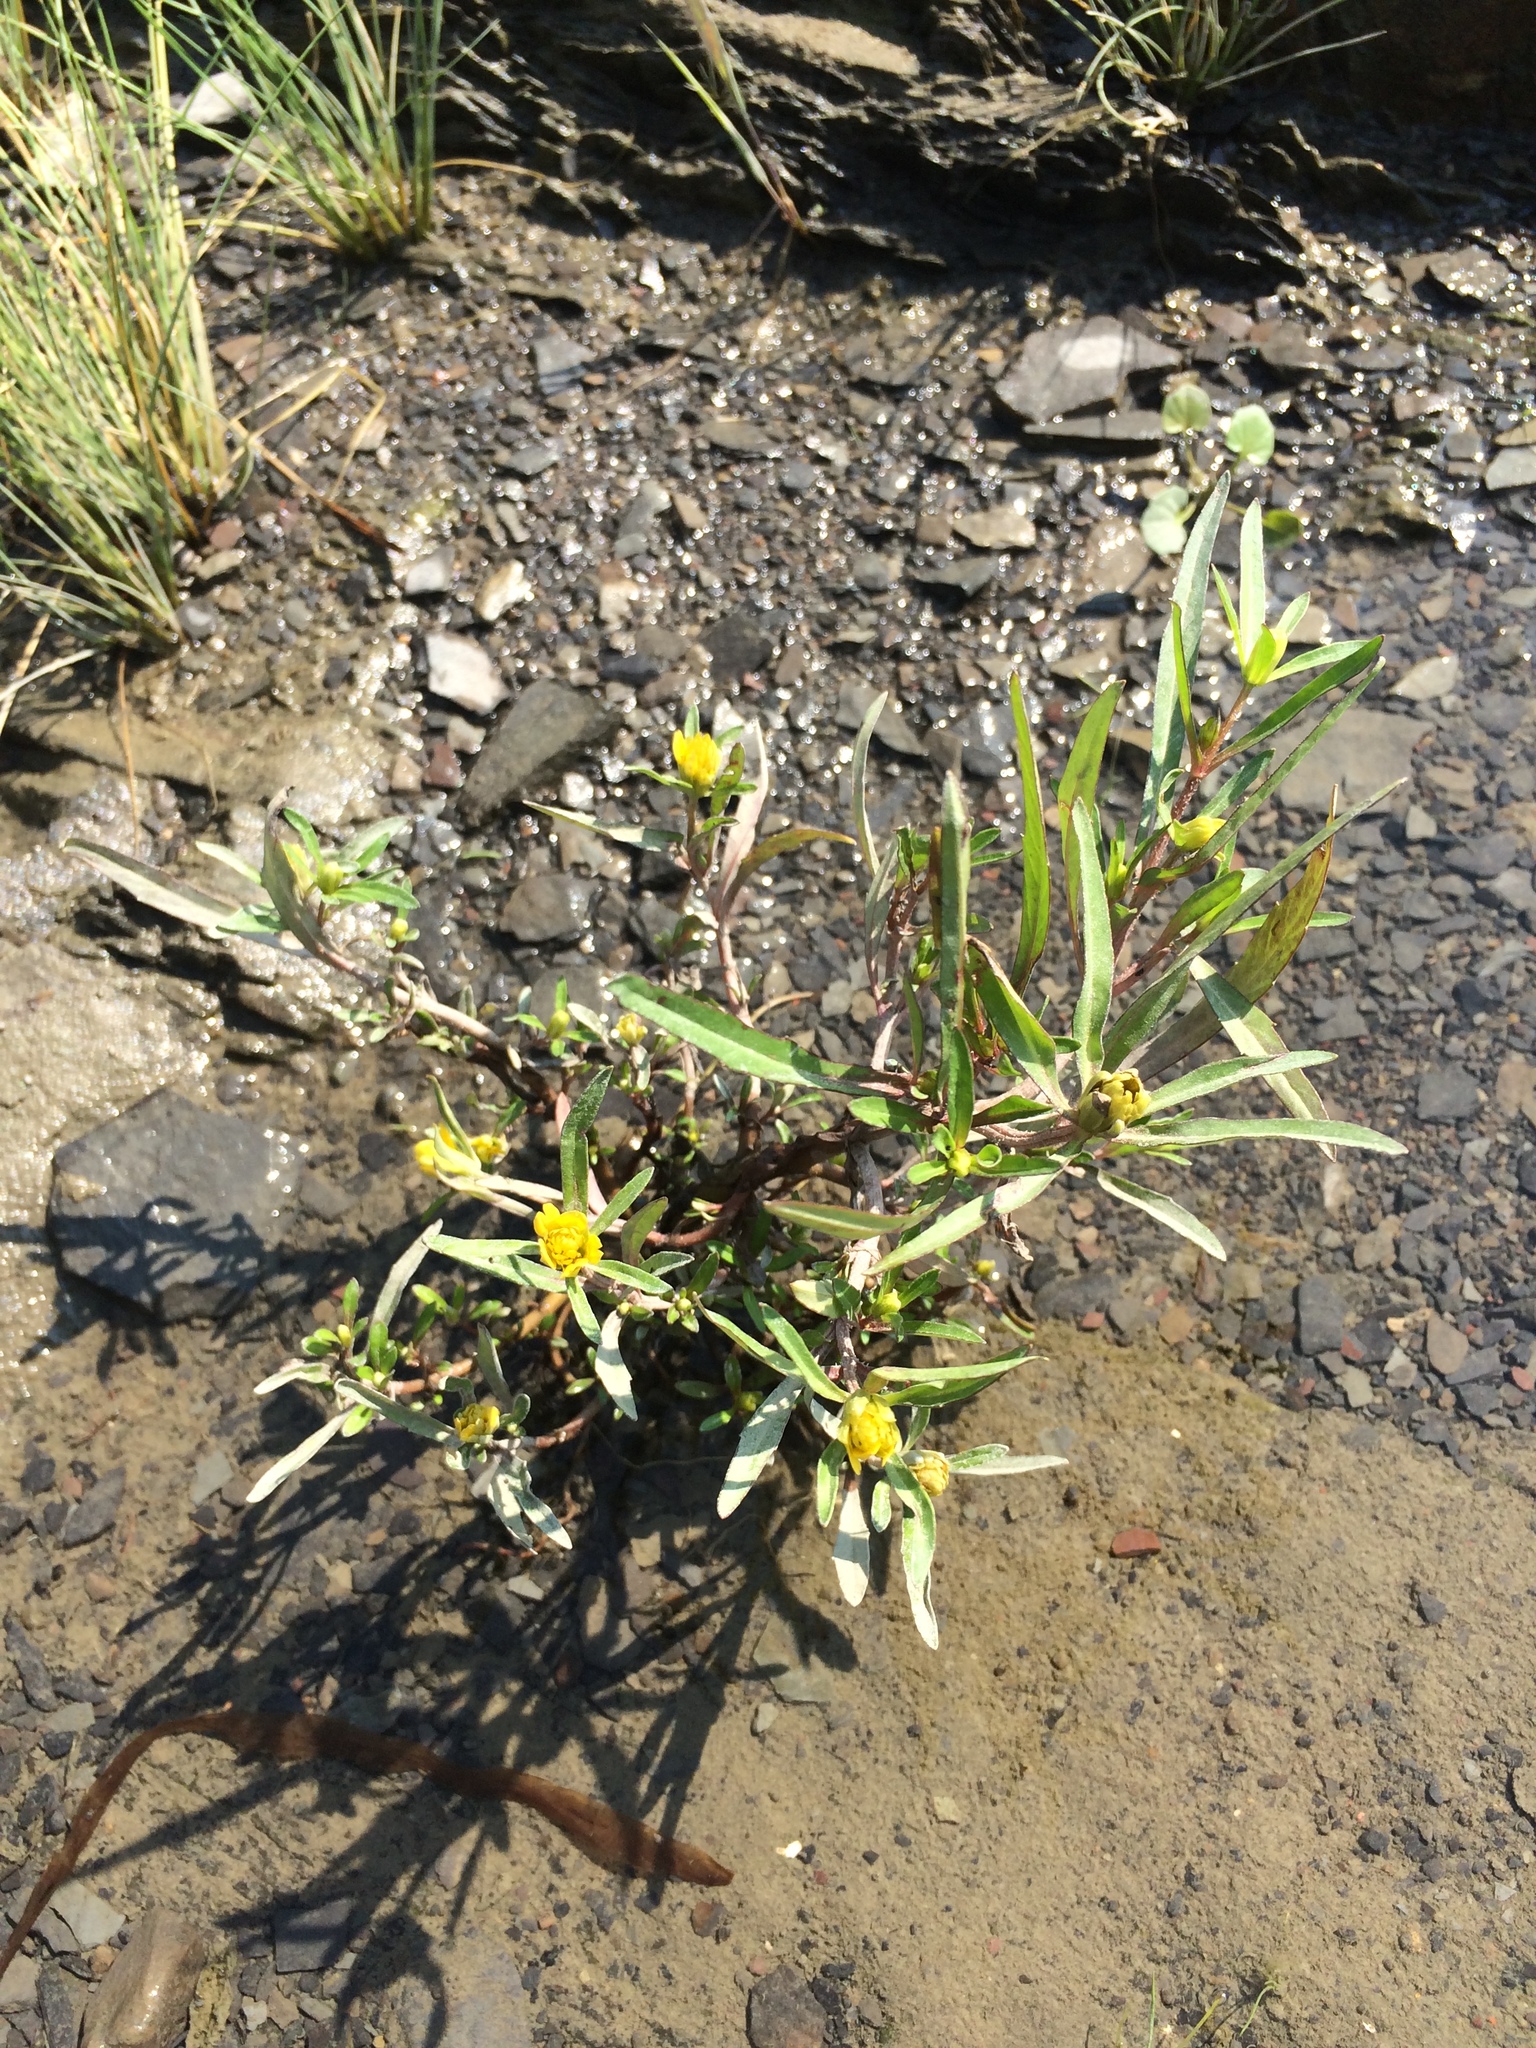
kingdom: Plantae
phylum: Tracheophyta
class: Magnoliopsida
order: Asterales
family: Asteraceae
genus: Bidens
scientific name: Bidens hyperborea
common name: Coastal beggarticks
